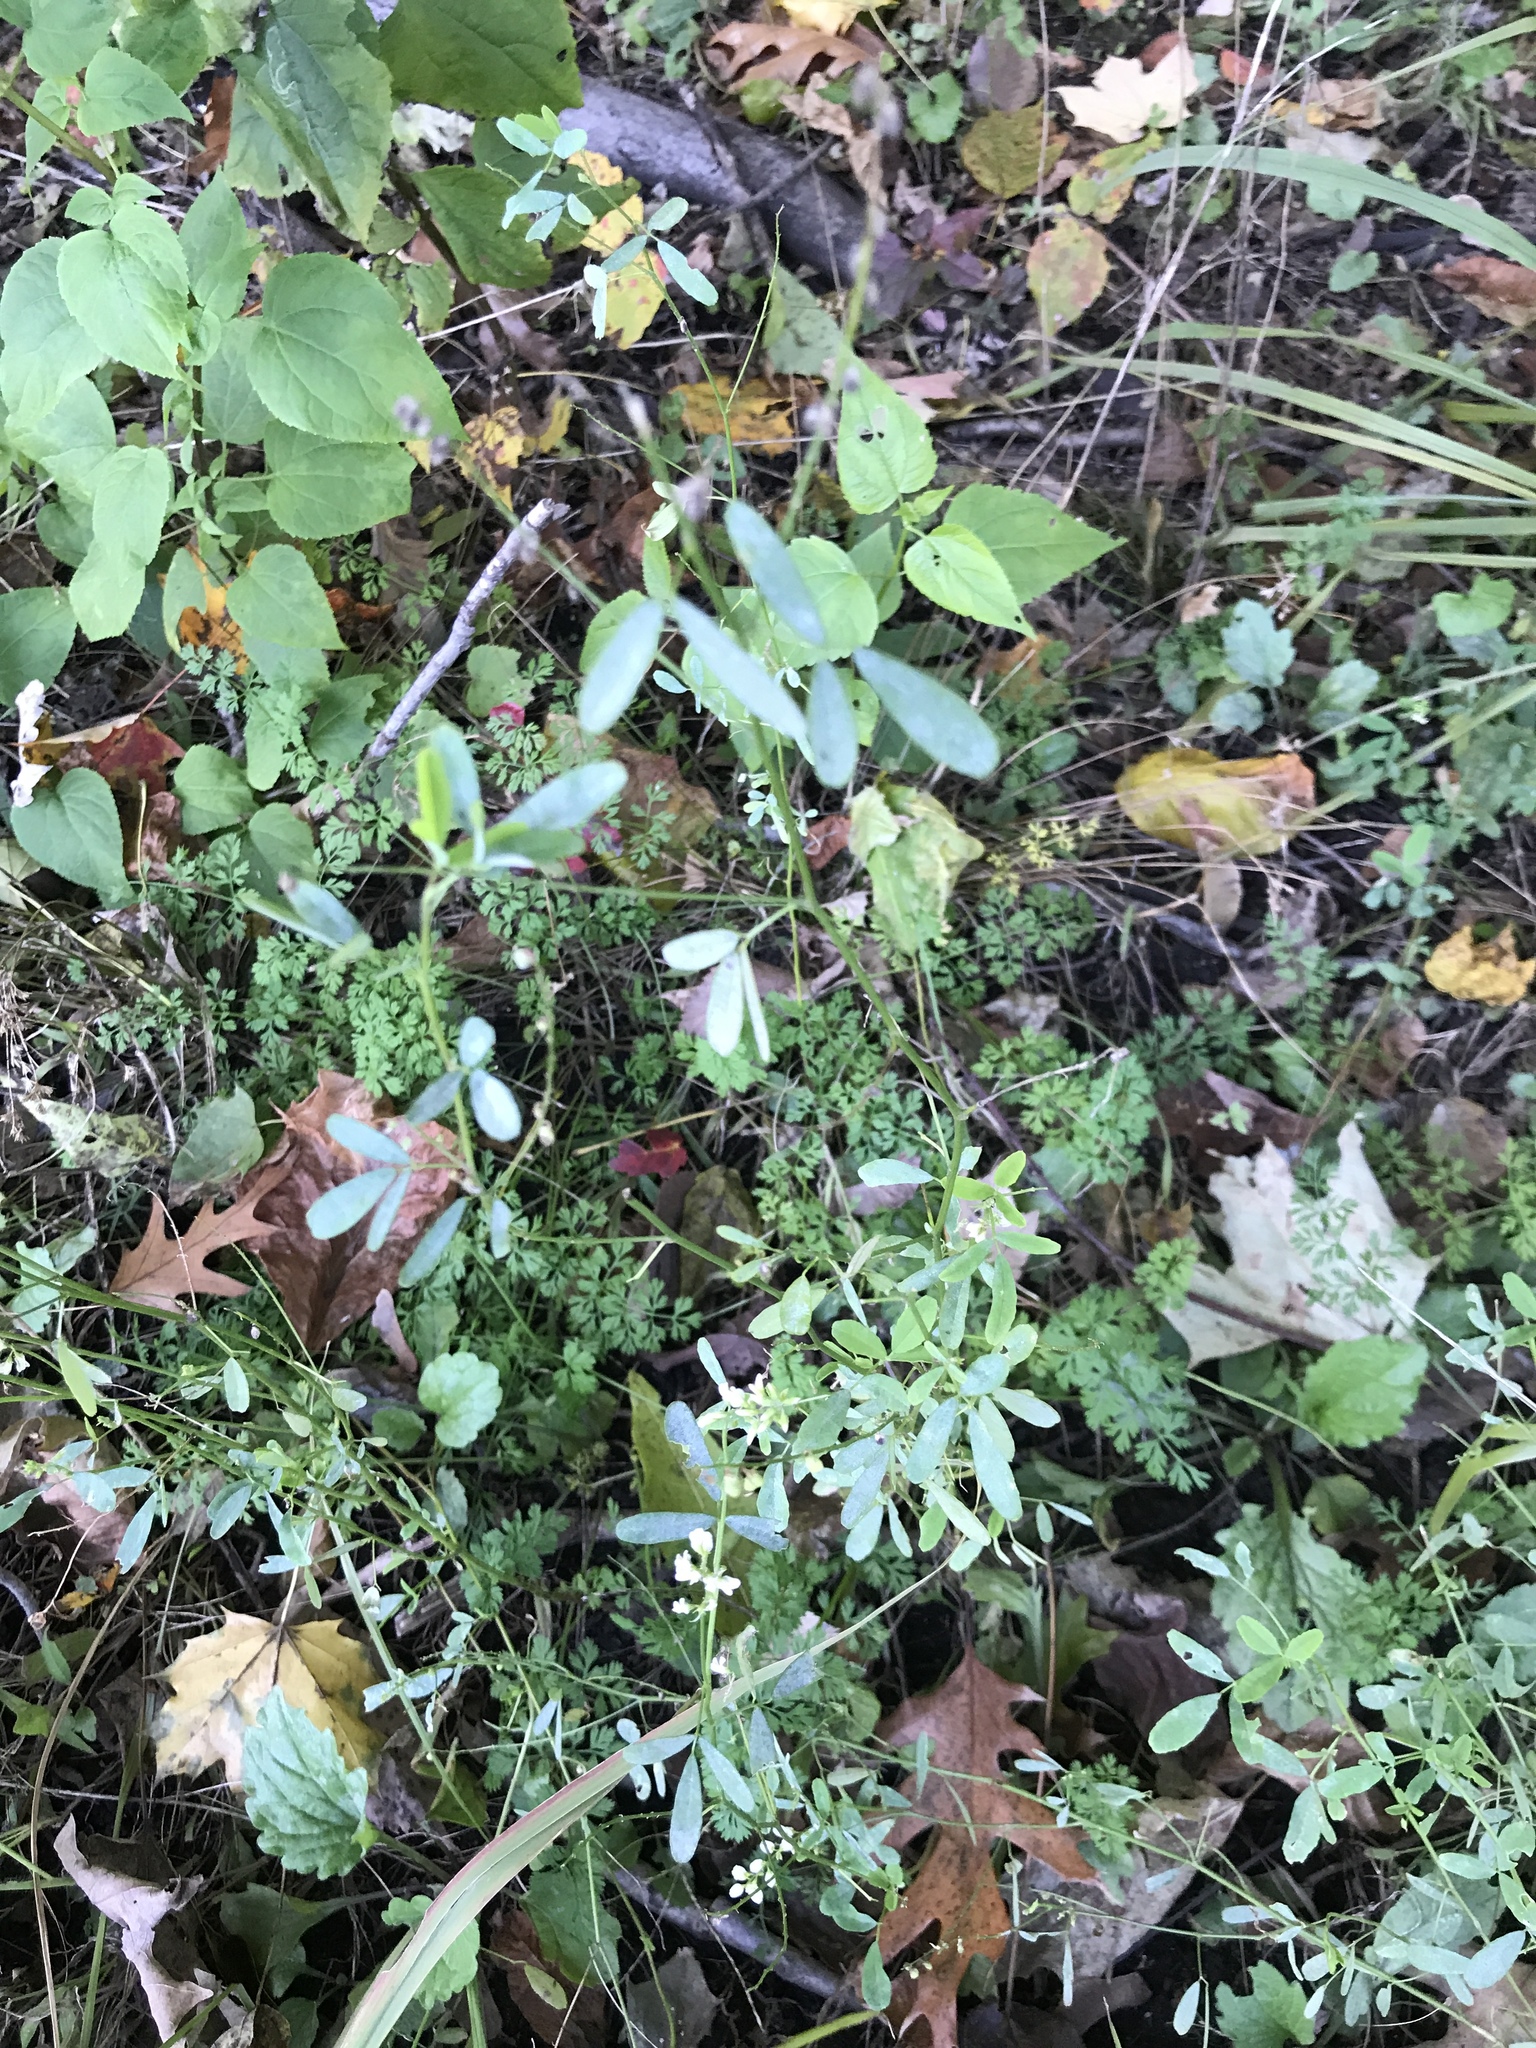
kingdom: Plantae
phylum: Tracheophyta
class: Magnoliopsida
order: Fabales
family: Fabaceae
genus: Melilotus
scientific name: Melilotus albus
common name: White melilot
